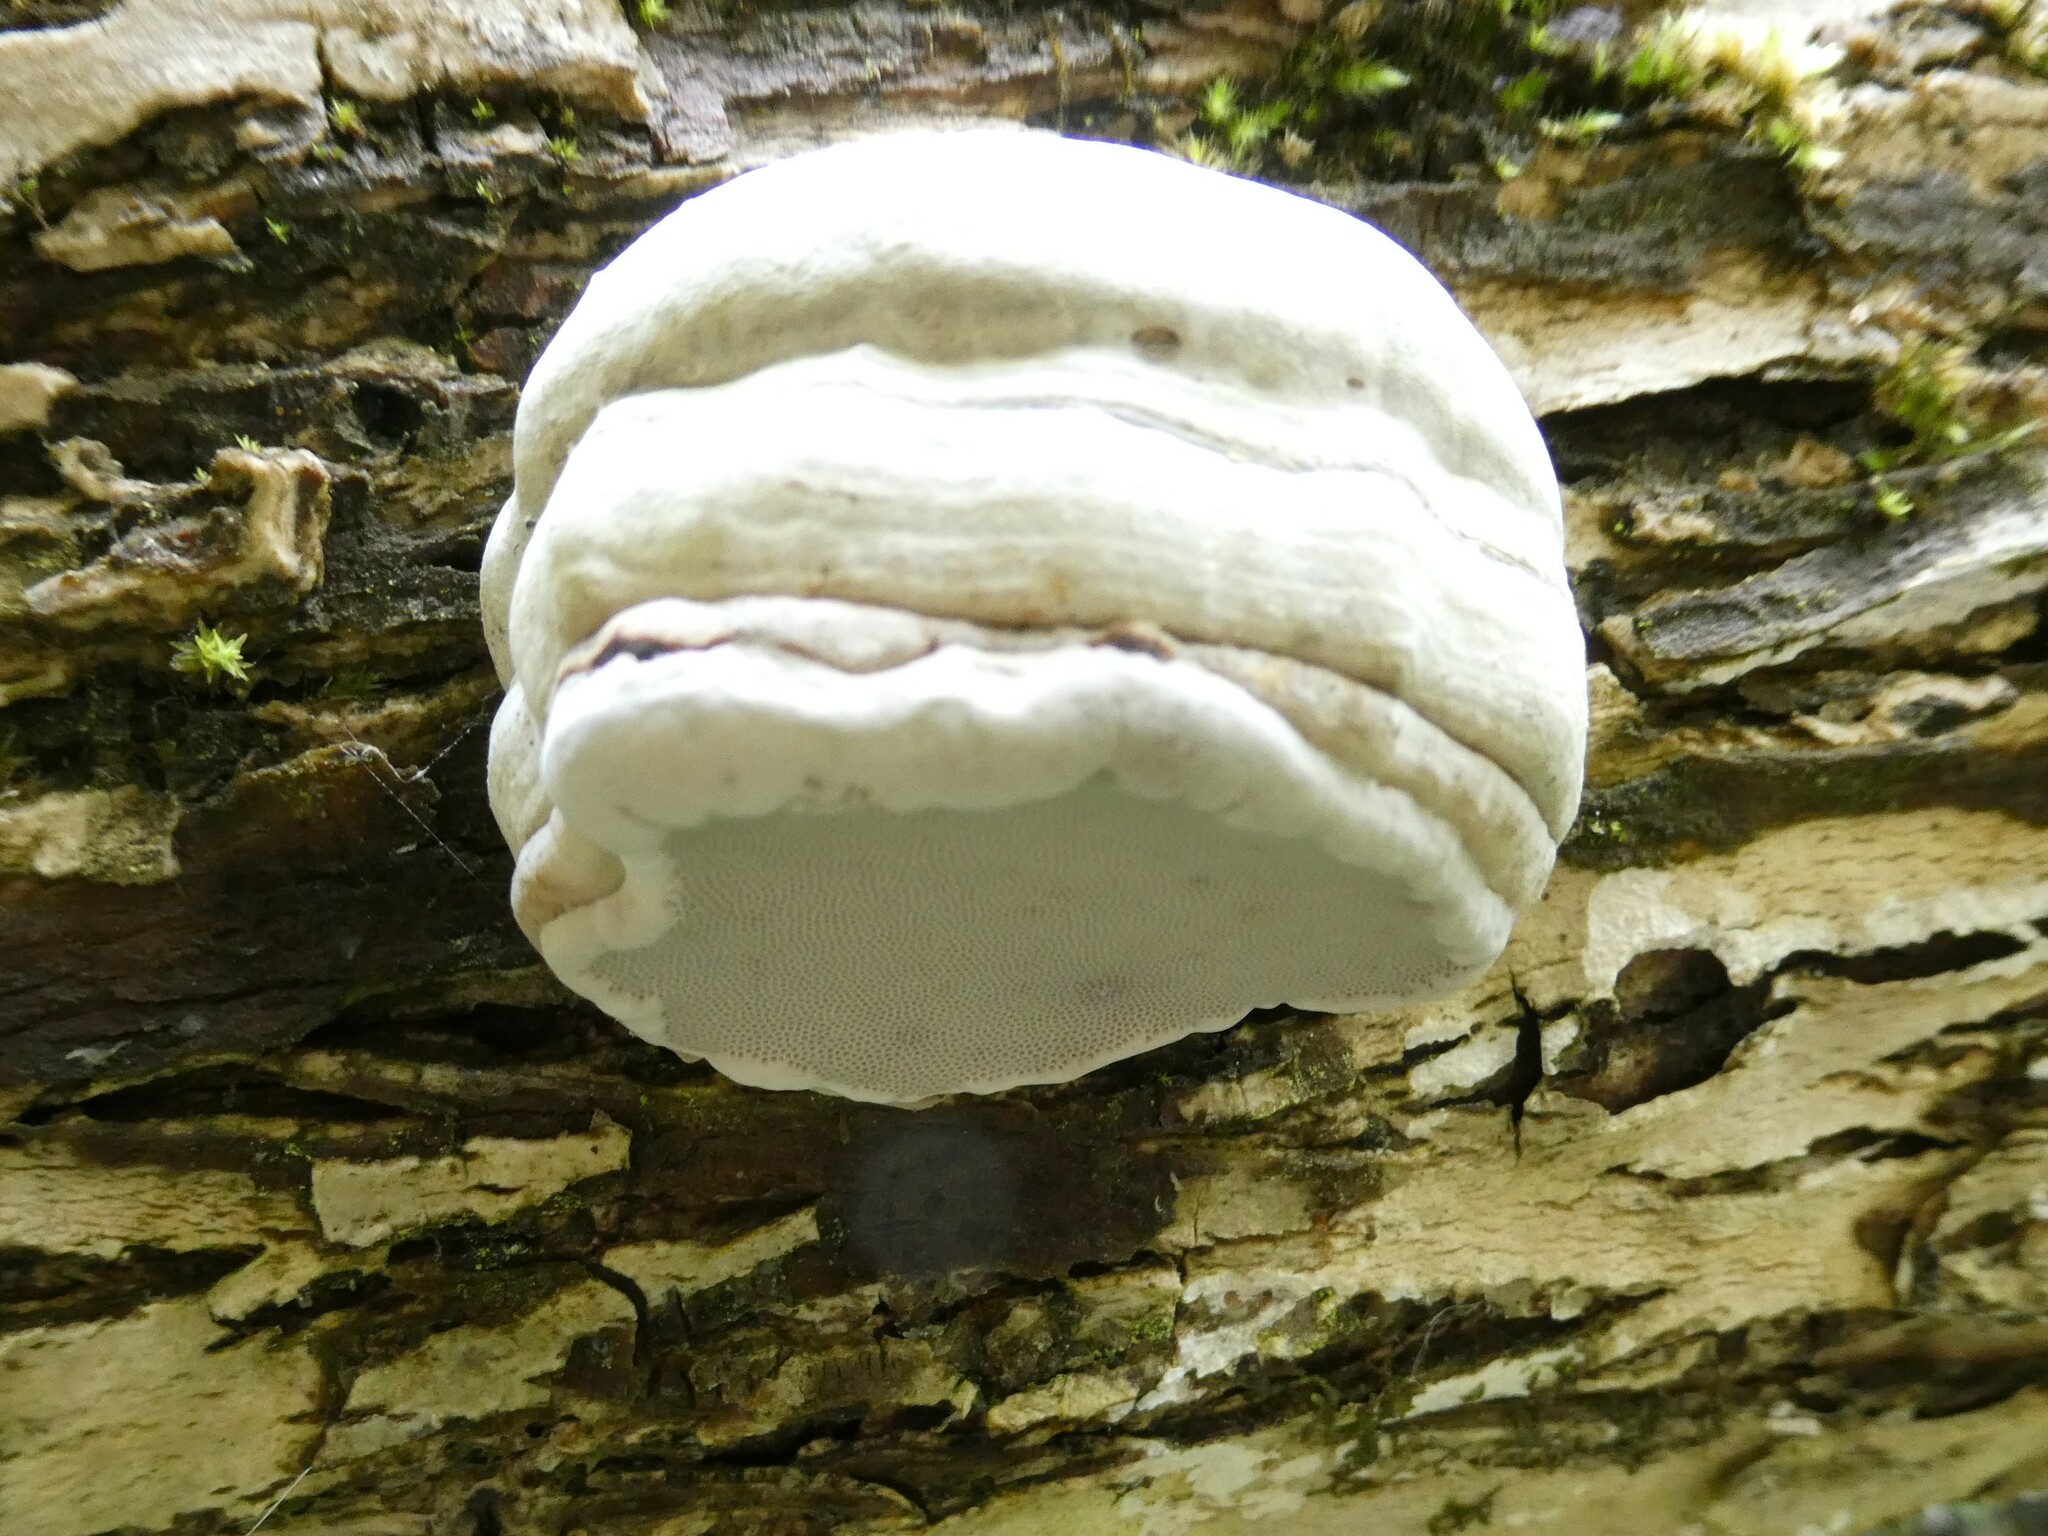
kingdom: Fungi
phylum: Basidiomycota
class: Agaricomycetes
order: Polyporales
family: Polyporaceae
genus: Fomes
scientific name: Fomes fomentarius
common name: Hoof fungus
